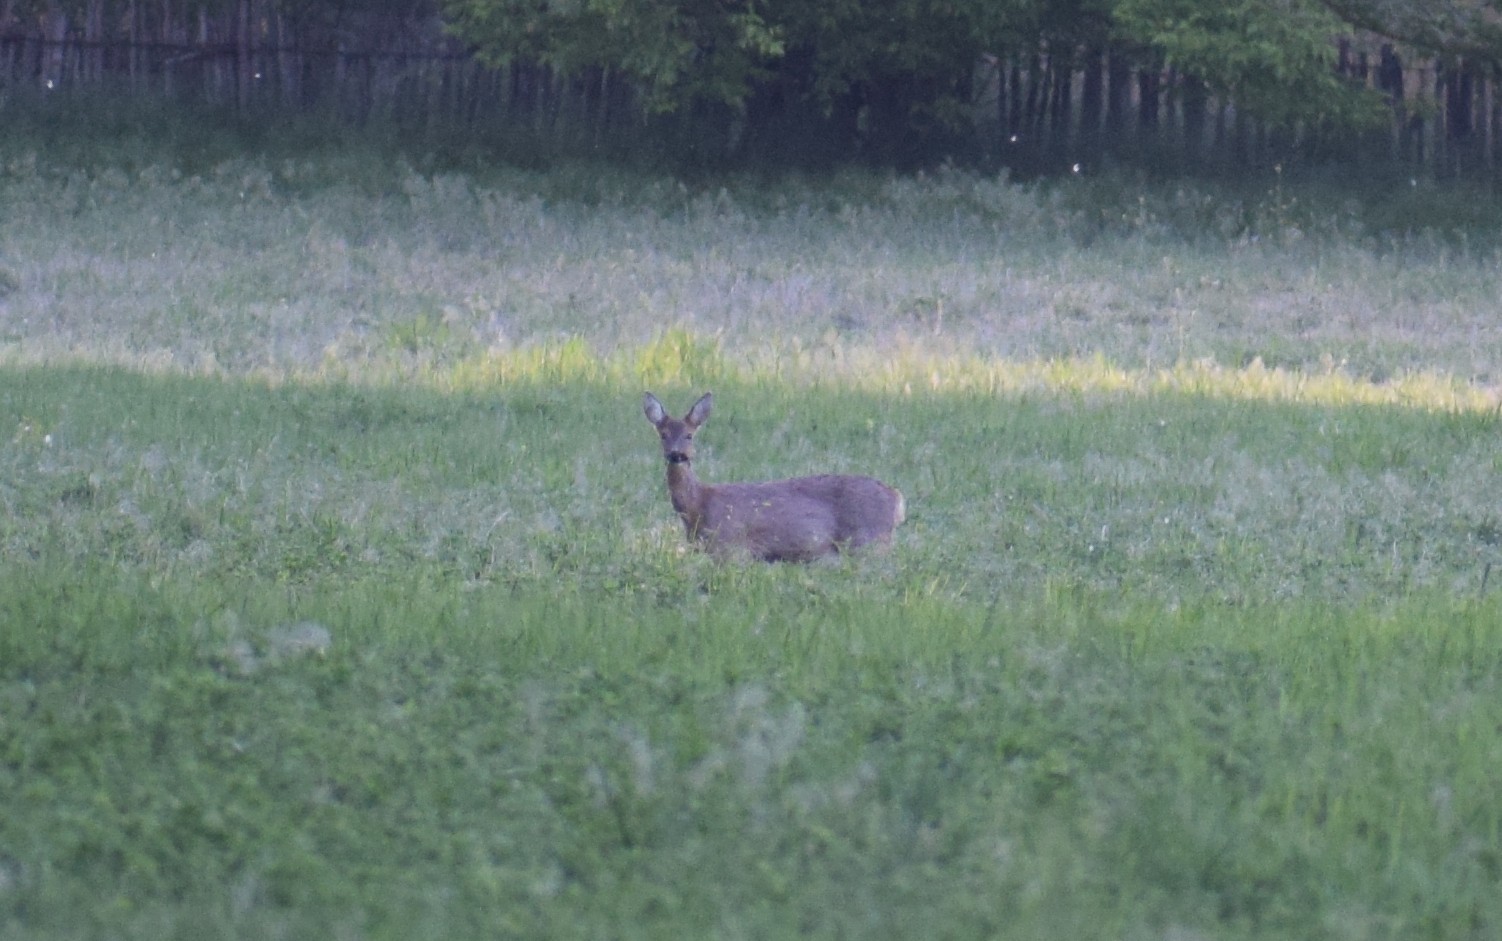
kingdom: Animalia
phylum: Chordata
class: Mammalia
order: Artiodactyla
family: Cervidae
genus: Capreolus
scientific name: Capreolus capreolus
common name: Western roe deer
